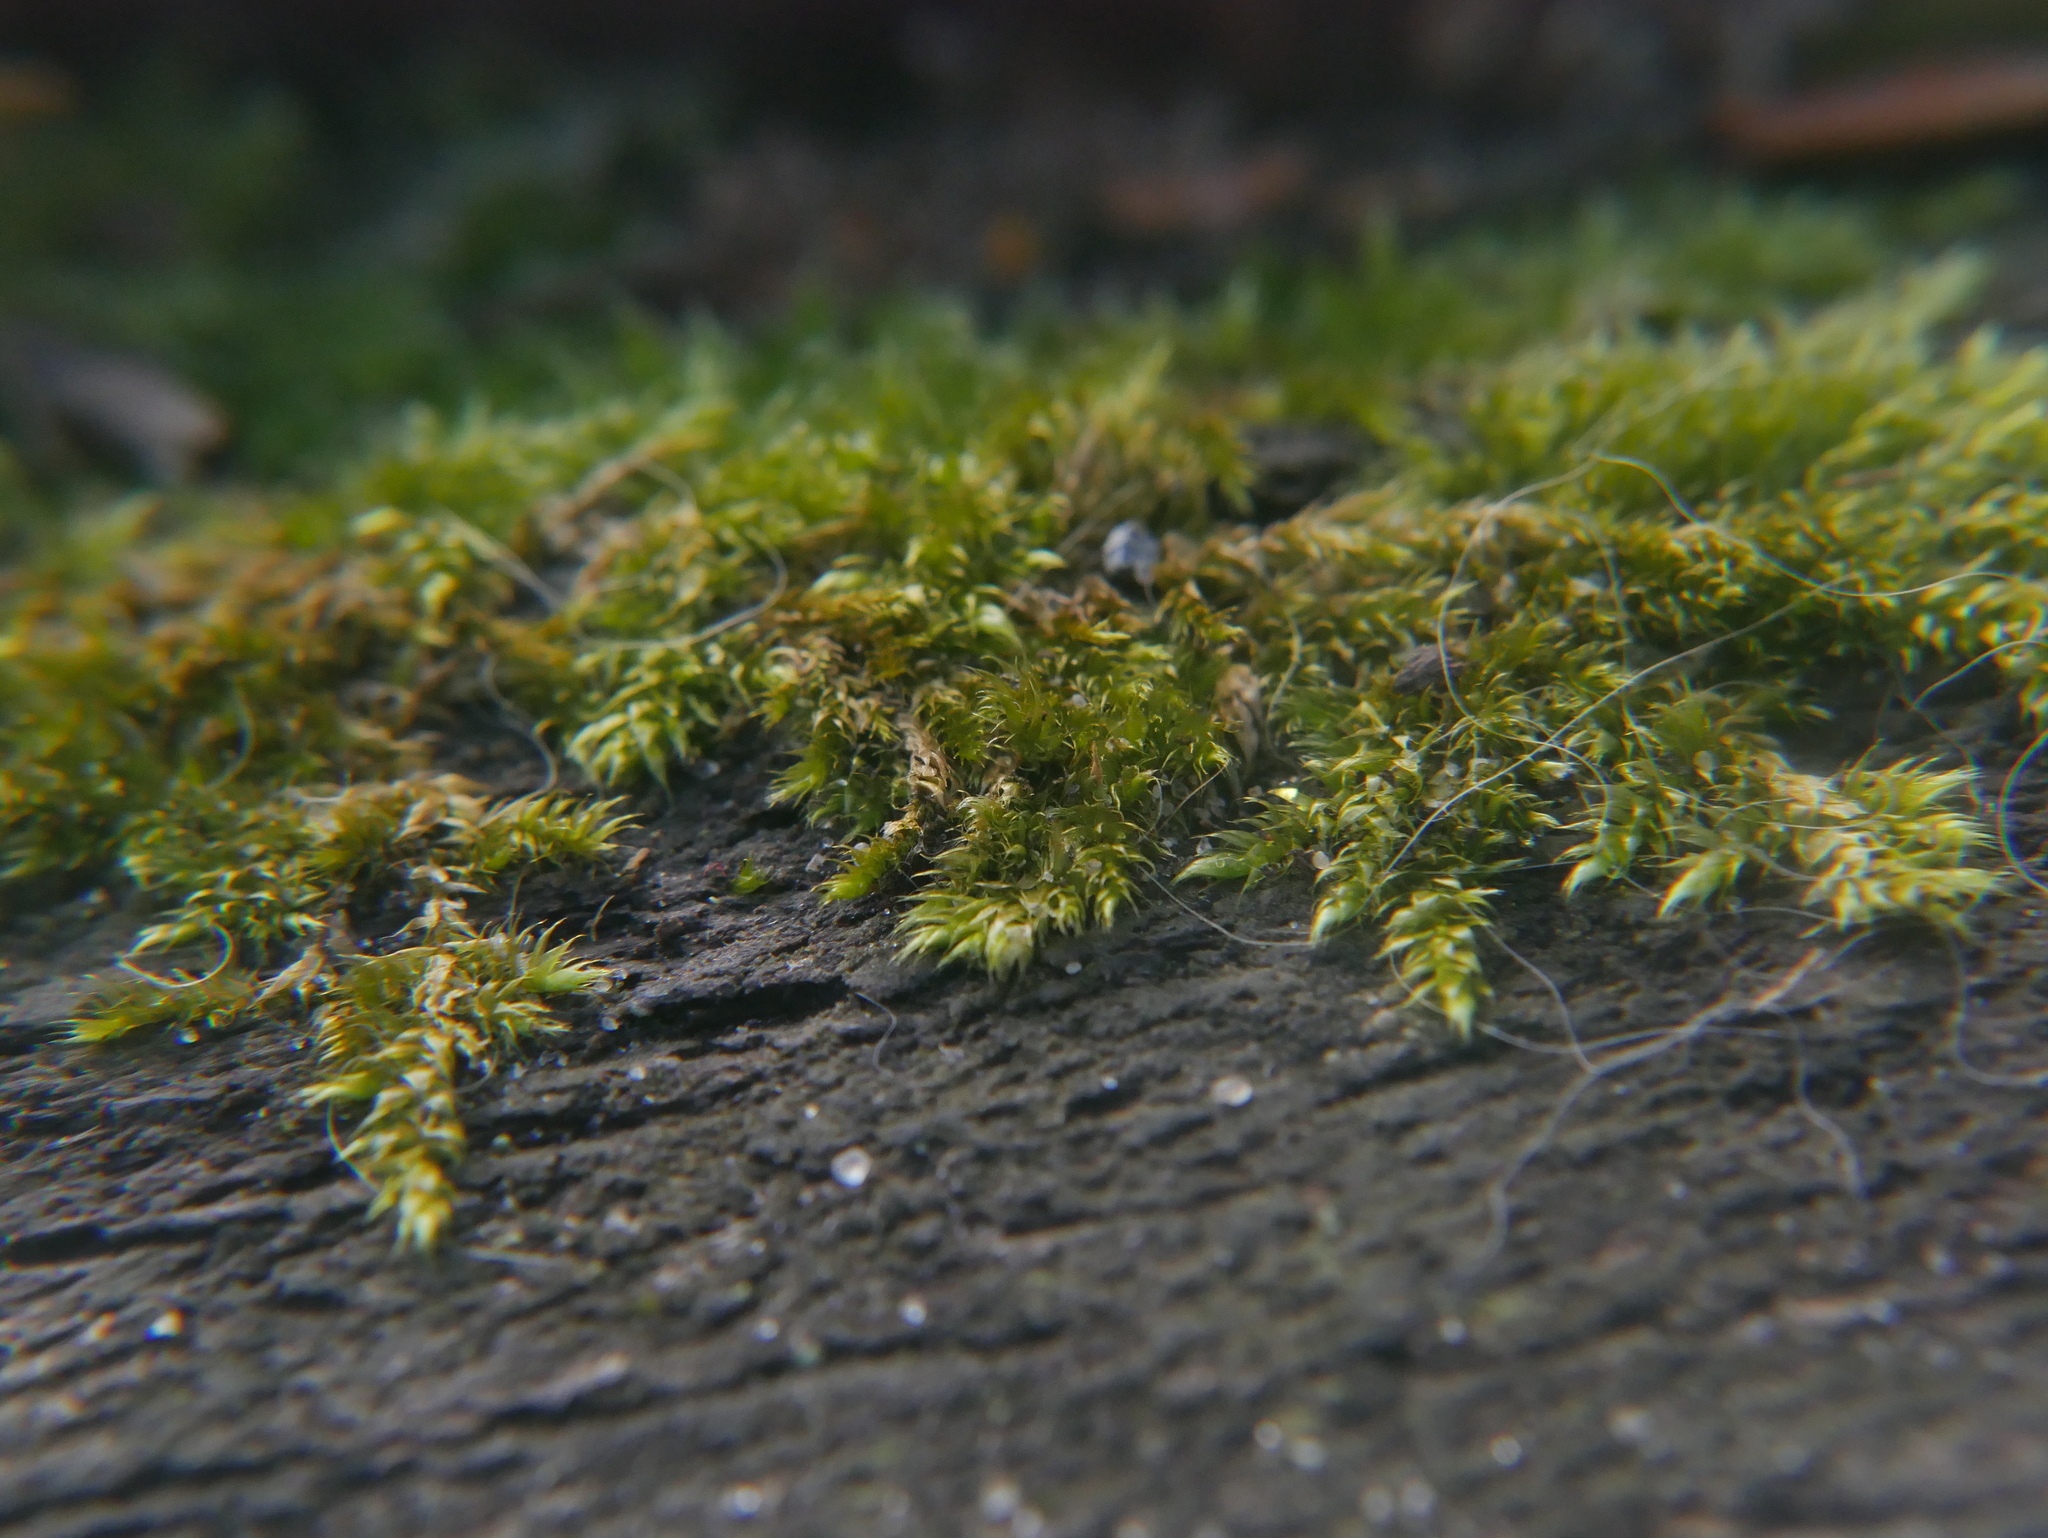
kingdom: Plantae
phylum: Bryophyta
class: Bryopsida
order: Hypnales
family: Hypnaceae
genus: Hypnum
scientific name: Hypnum cupressiforme
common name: Cypress-leaved plait-moss
